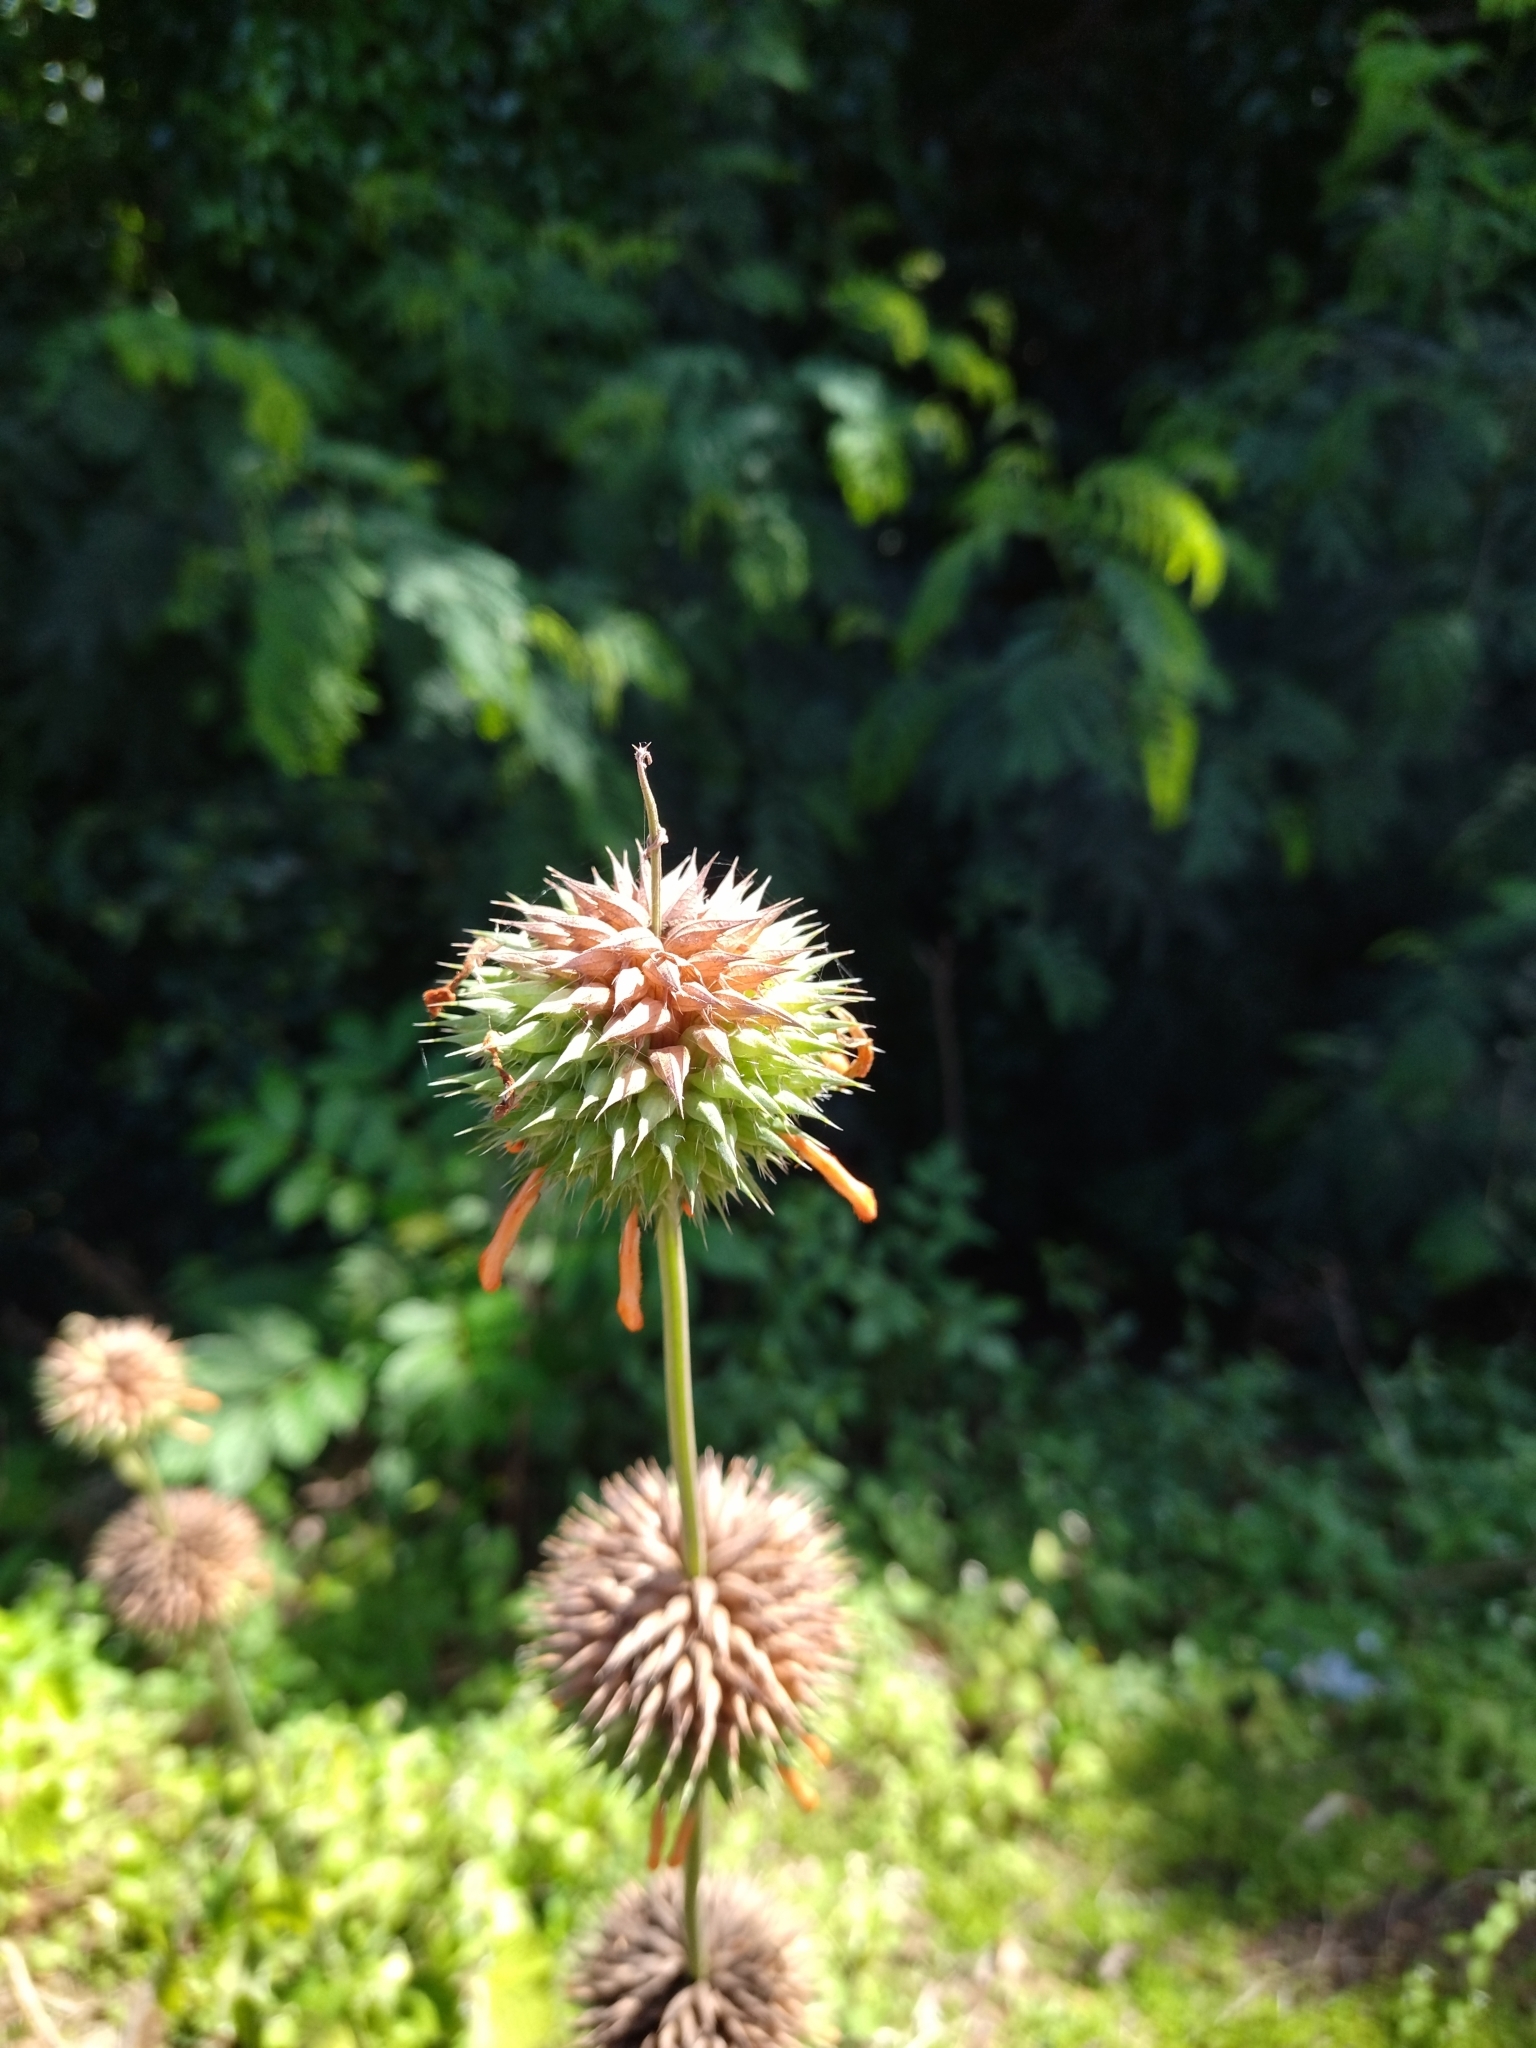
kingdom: Plantae
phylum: Tracheophyta
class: Magnoliopsida
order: Lamiales
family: Lamiaceae
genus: Leonotis
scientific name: Leonotis nepetifolia
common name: Christmas candlestick
